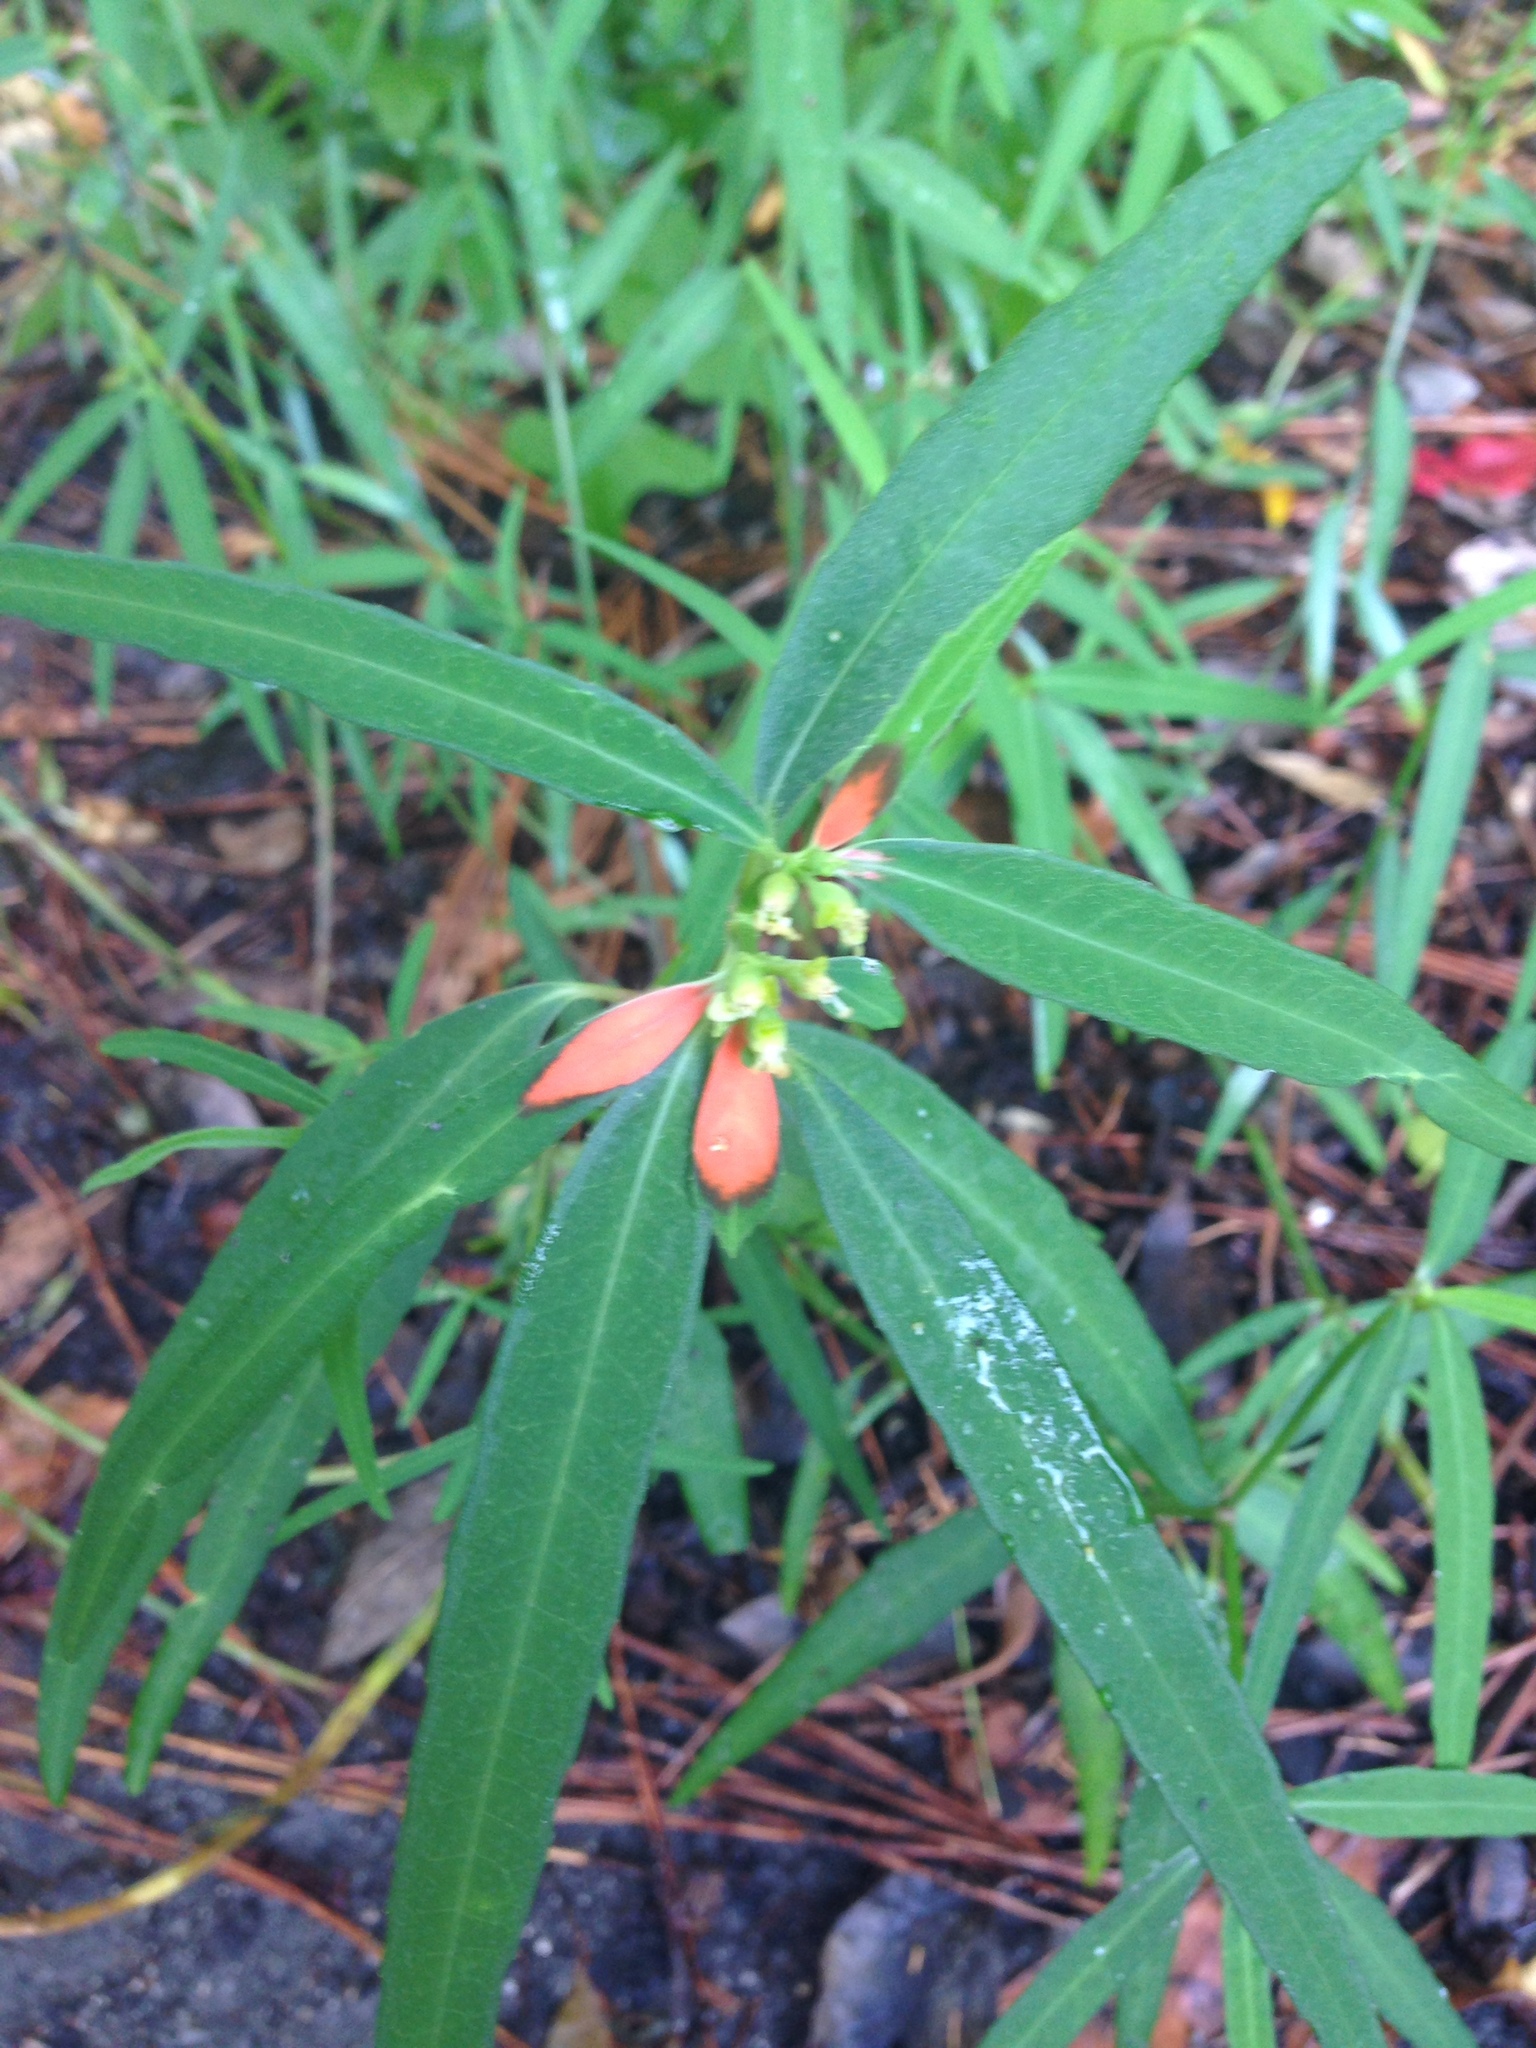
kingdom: Plantae
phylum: Tracheophyta
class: Magnoliopsida
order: Malpighiales
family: Euphorbiaceae
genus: Euphorbia
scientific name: Euphorbia heterophylla
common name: Mexican fireplant
